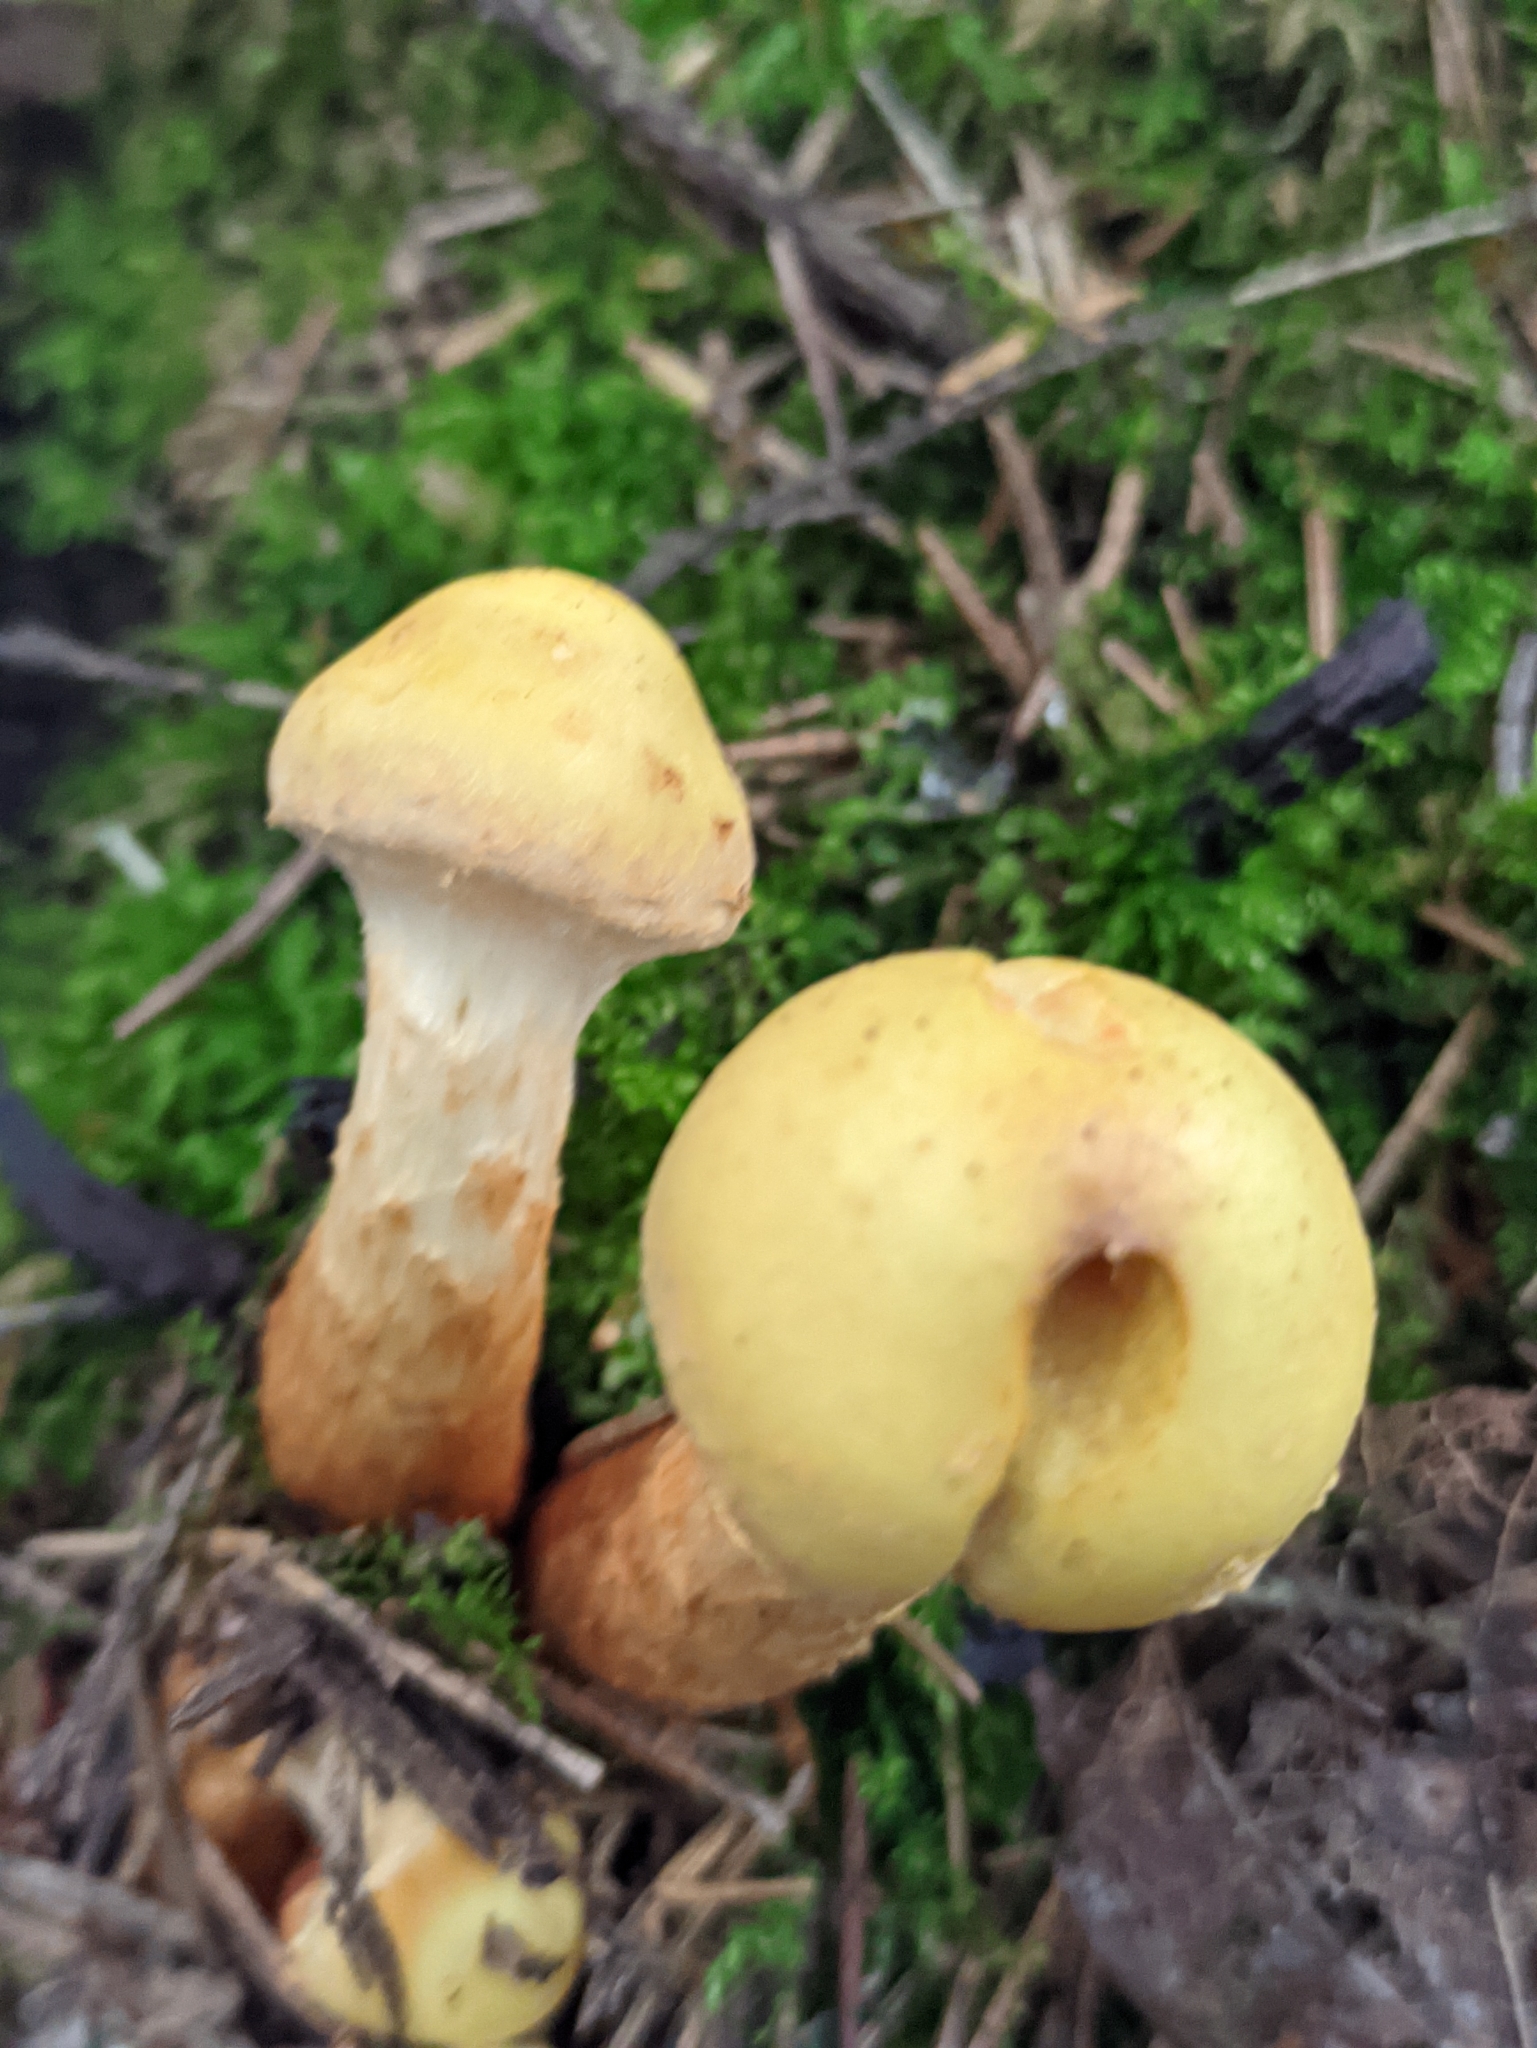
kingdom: Fungi
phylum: Basidiomycota
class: Agaricomycetes
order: Agaricales
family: Hymenogastraceae
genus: Flammula
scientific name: Flammula alnicola
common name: Alder scalycap
